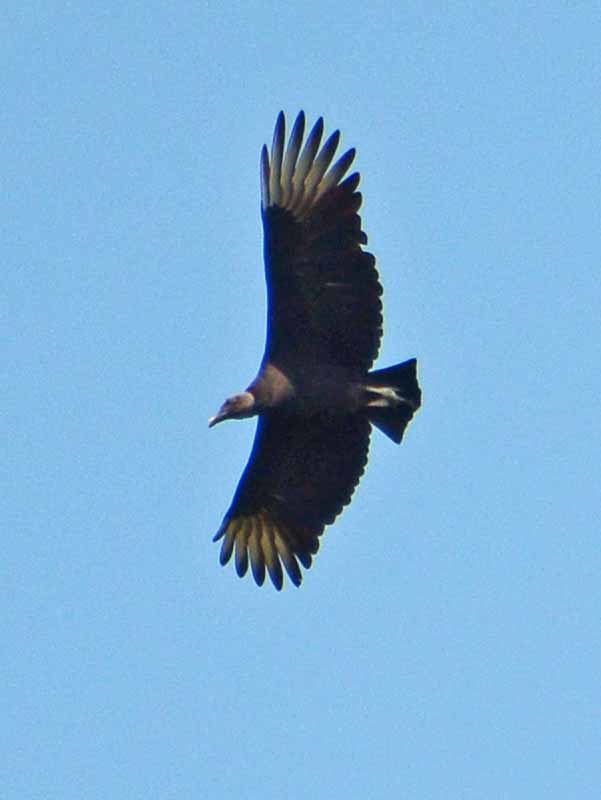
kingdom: Animalia
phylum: Chordata
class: Aves
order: Accipitriformes
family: Cathartidae
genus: Coragyps
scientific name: Coragyps atratus
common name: Black vulture
